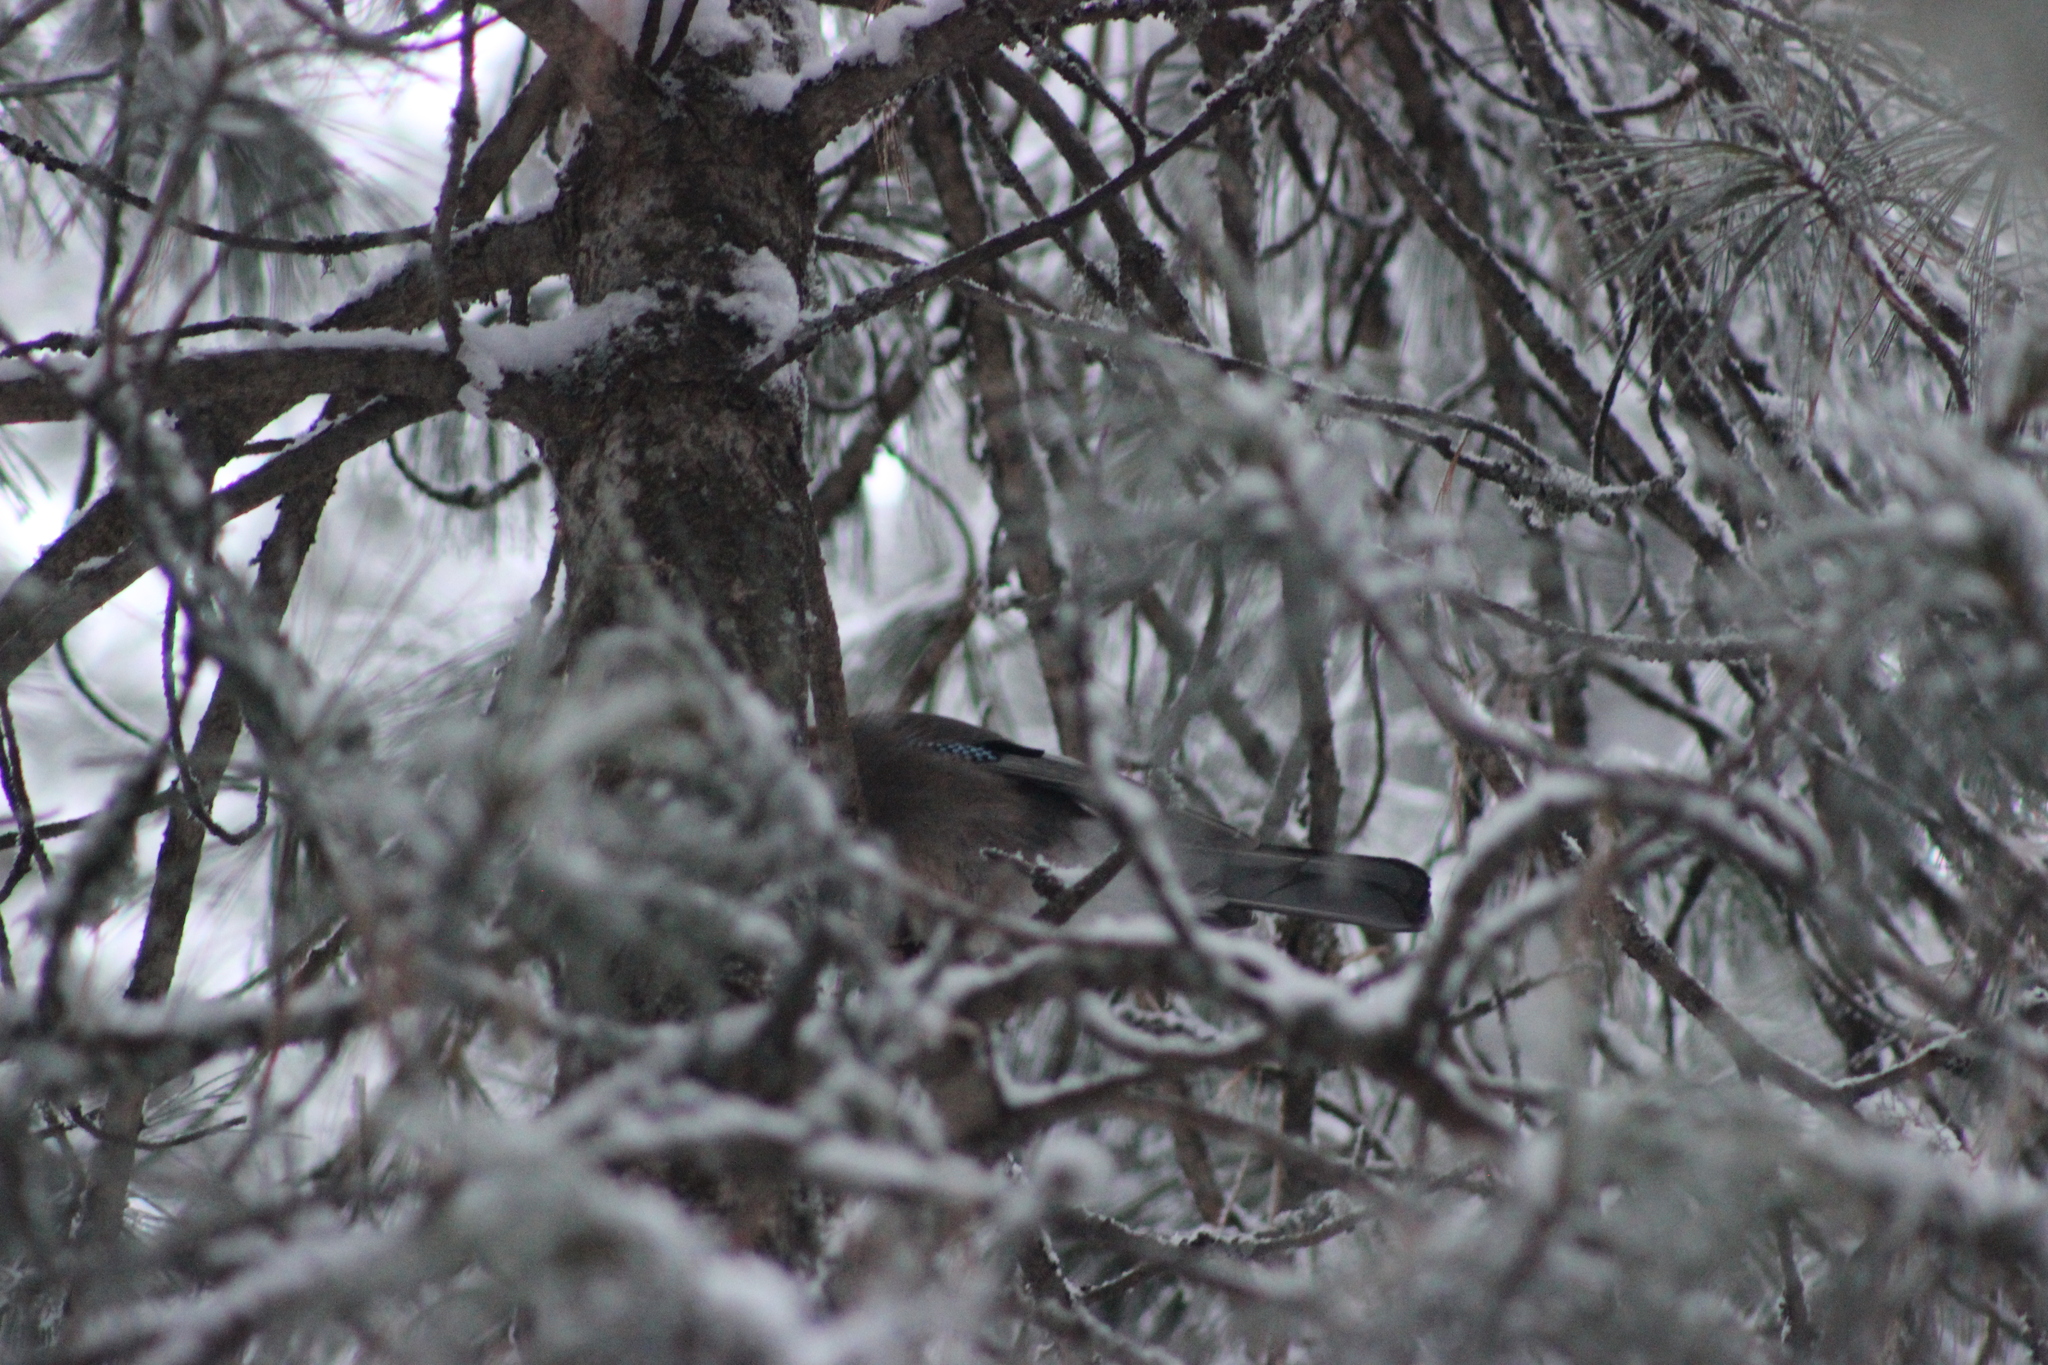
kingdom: Animalia
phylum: Chordata
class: Aves
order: Passeriformes
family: Corvidae
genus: Garrulus
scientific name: Garrulus glandarius
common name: Eurasian jay
